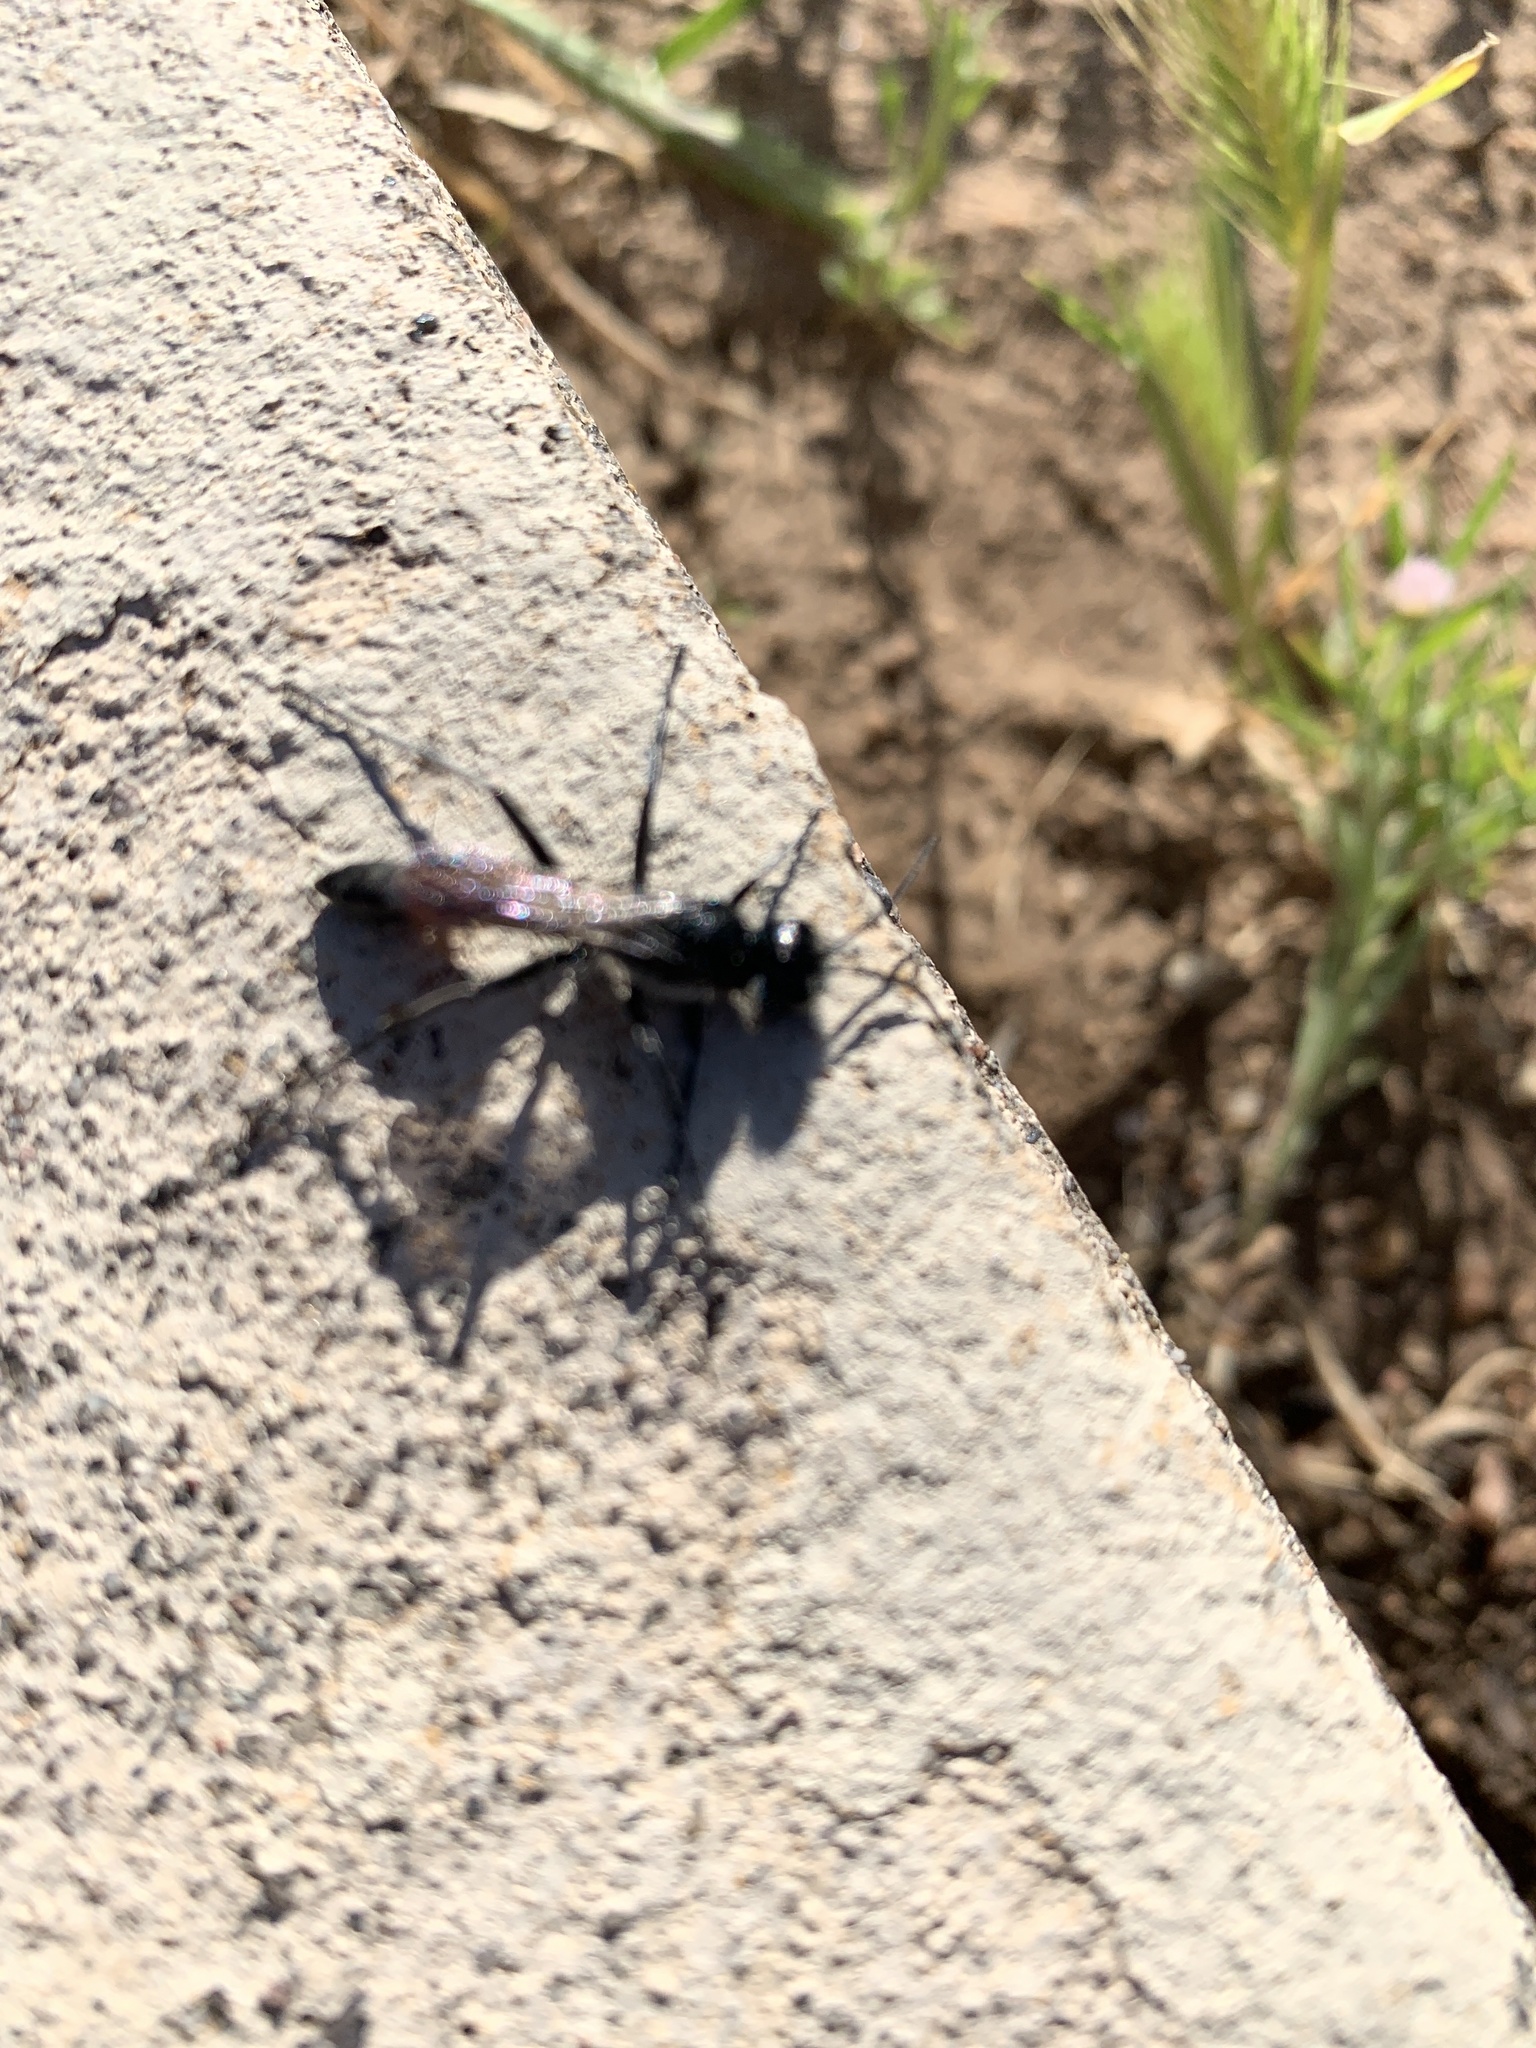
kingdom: Animalia
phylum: Arthropoda
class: Insecta
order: Hymenoptera
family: Sphecidae
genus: Podalonia
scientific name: Podalonia
